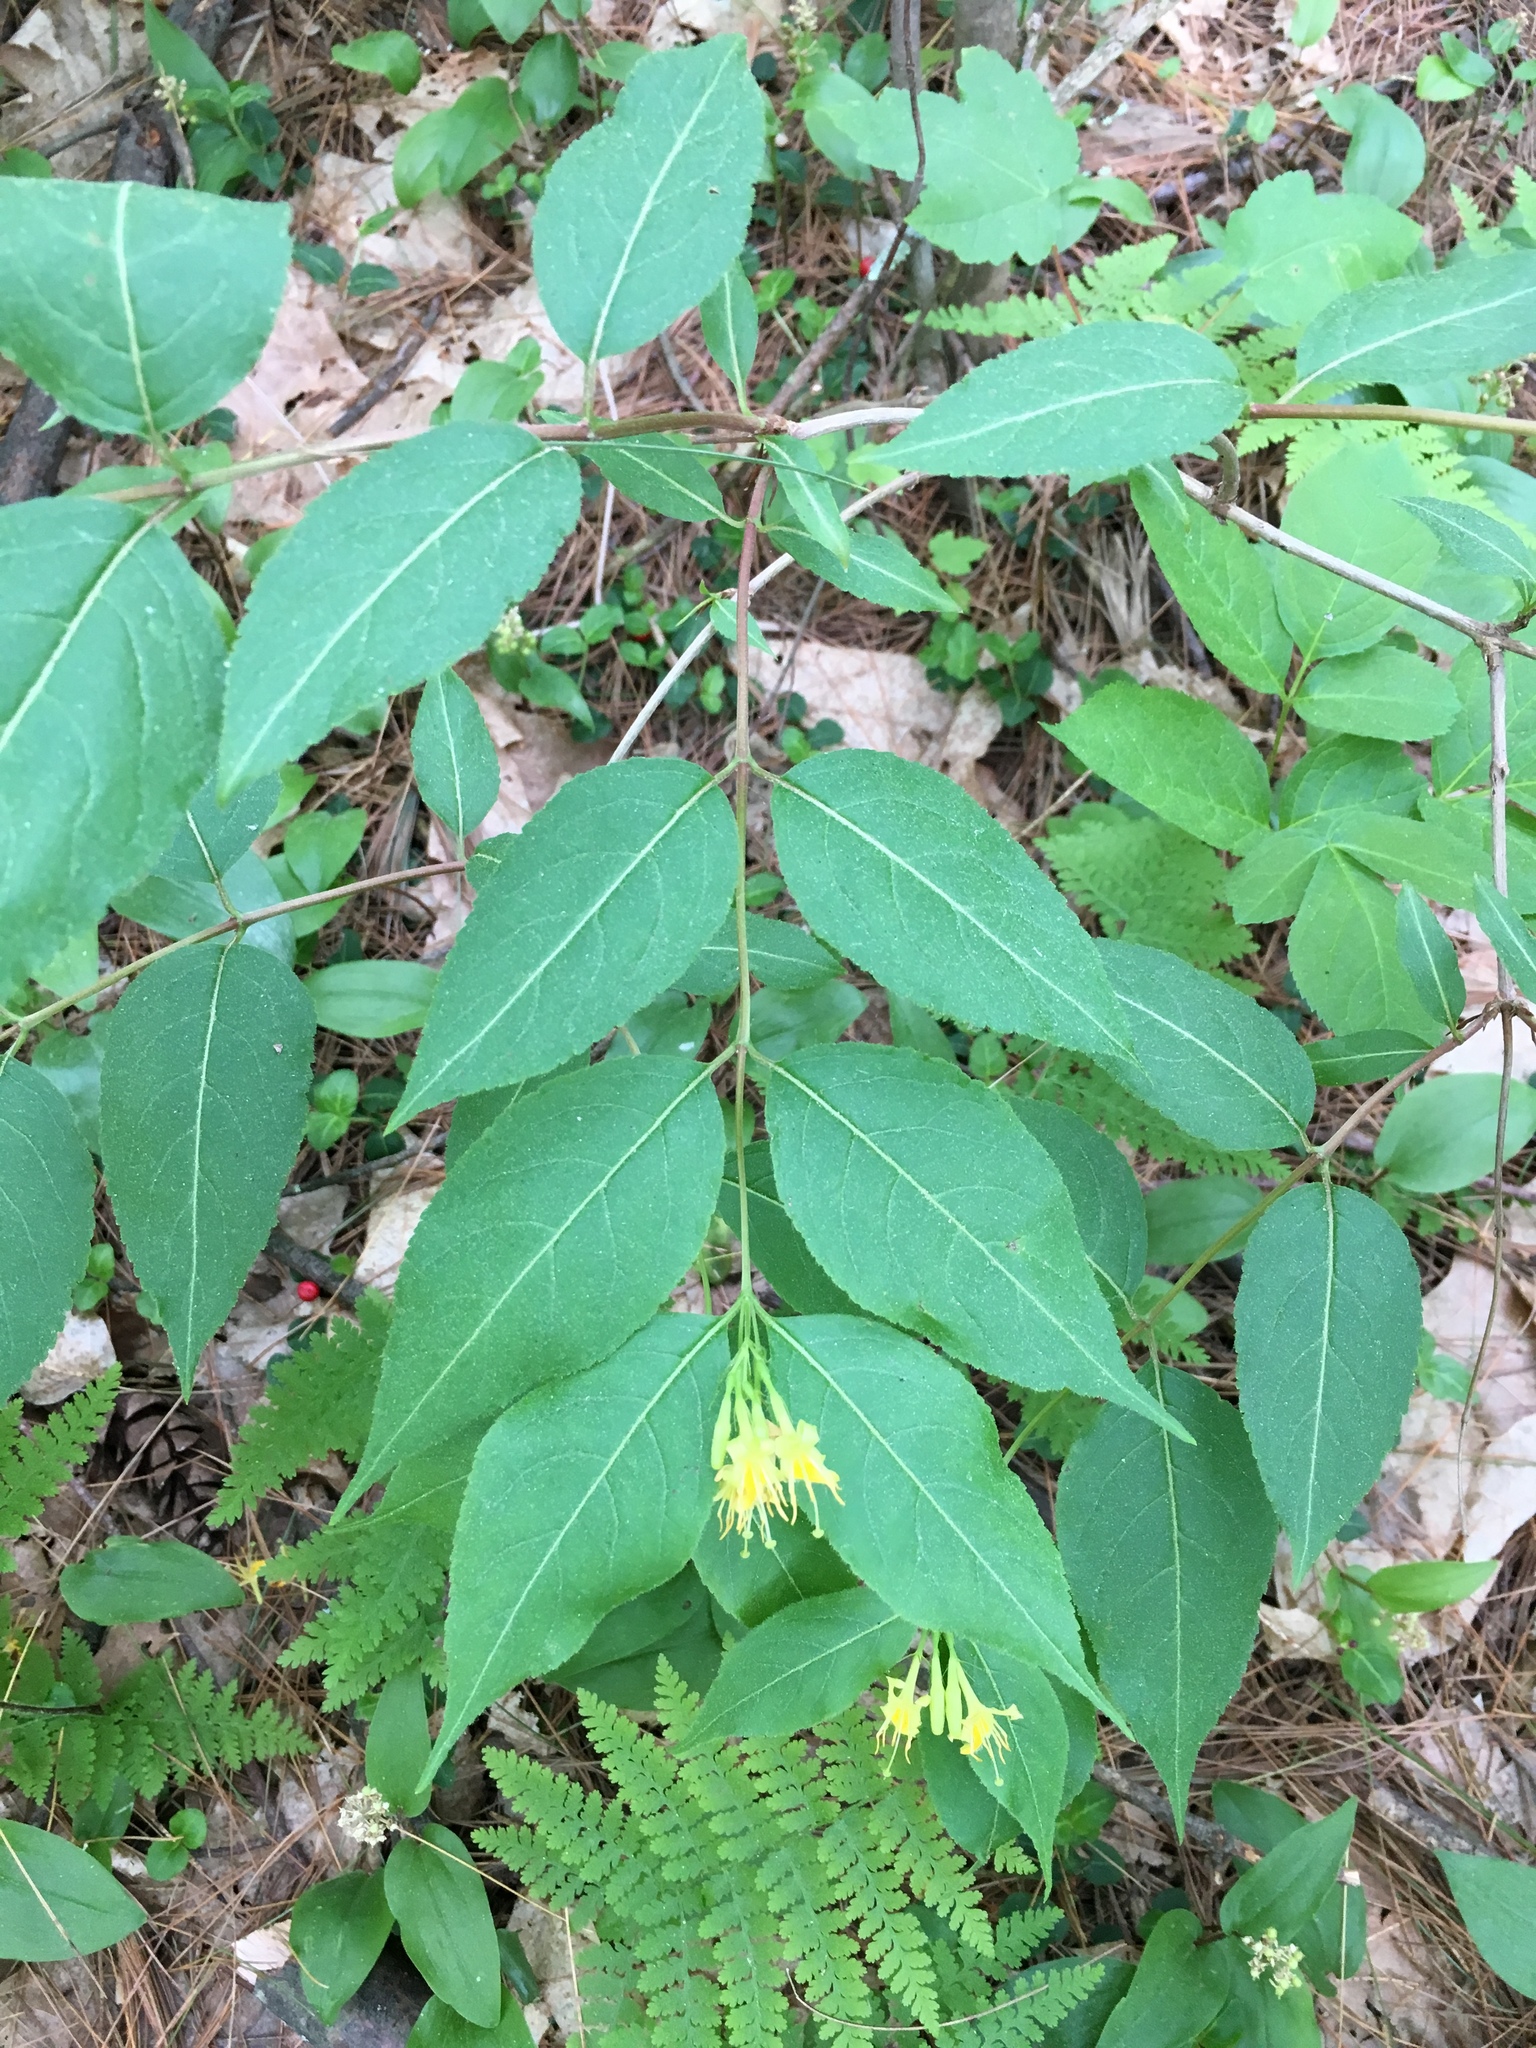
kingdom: Plantae
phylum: Tracheophyta
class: Magnoliopsida
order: Dipsacales
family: Caprifoliaceae
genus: Diervilla
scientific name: Diervilla lonicera
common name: Bush-honeysuckle
